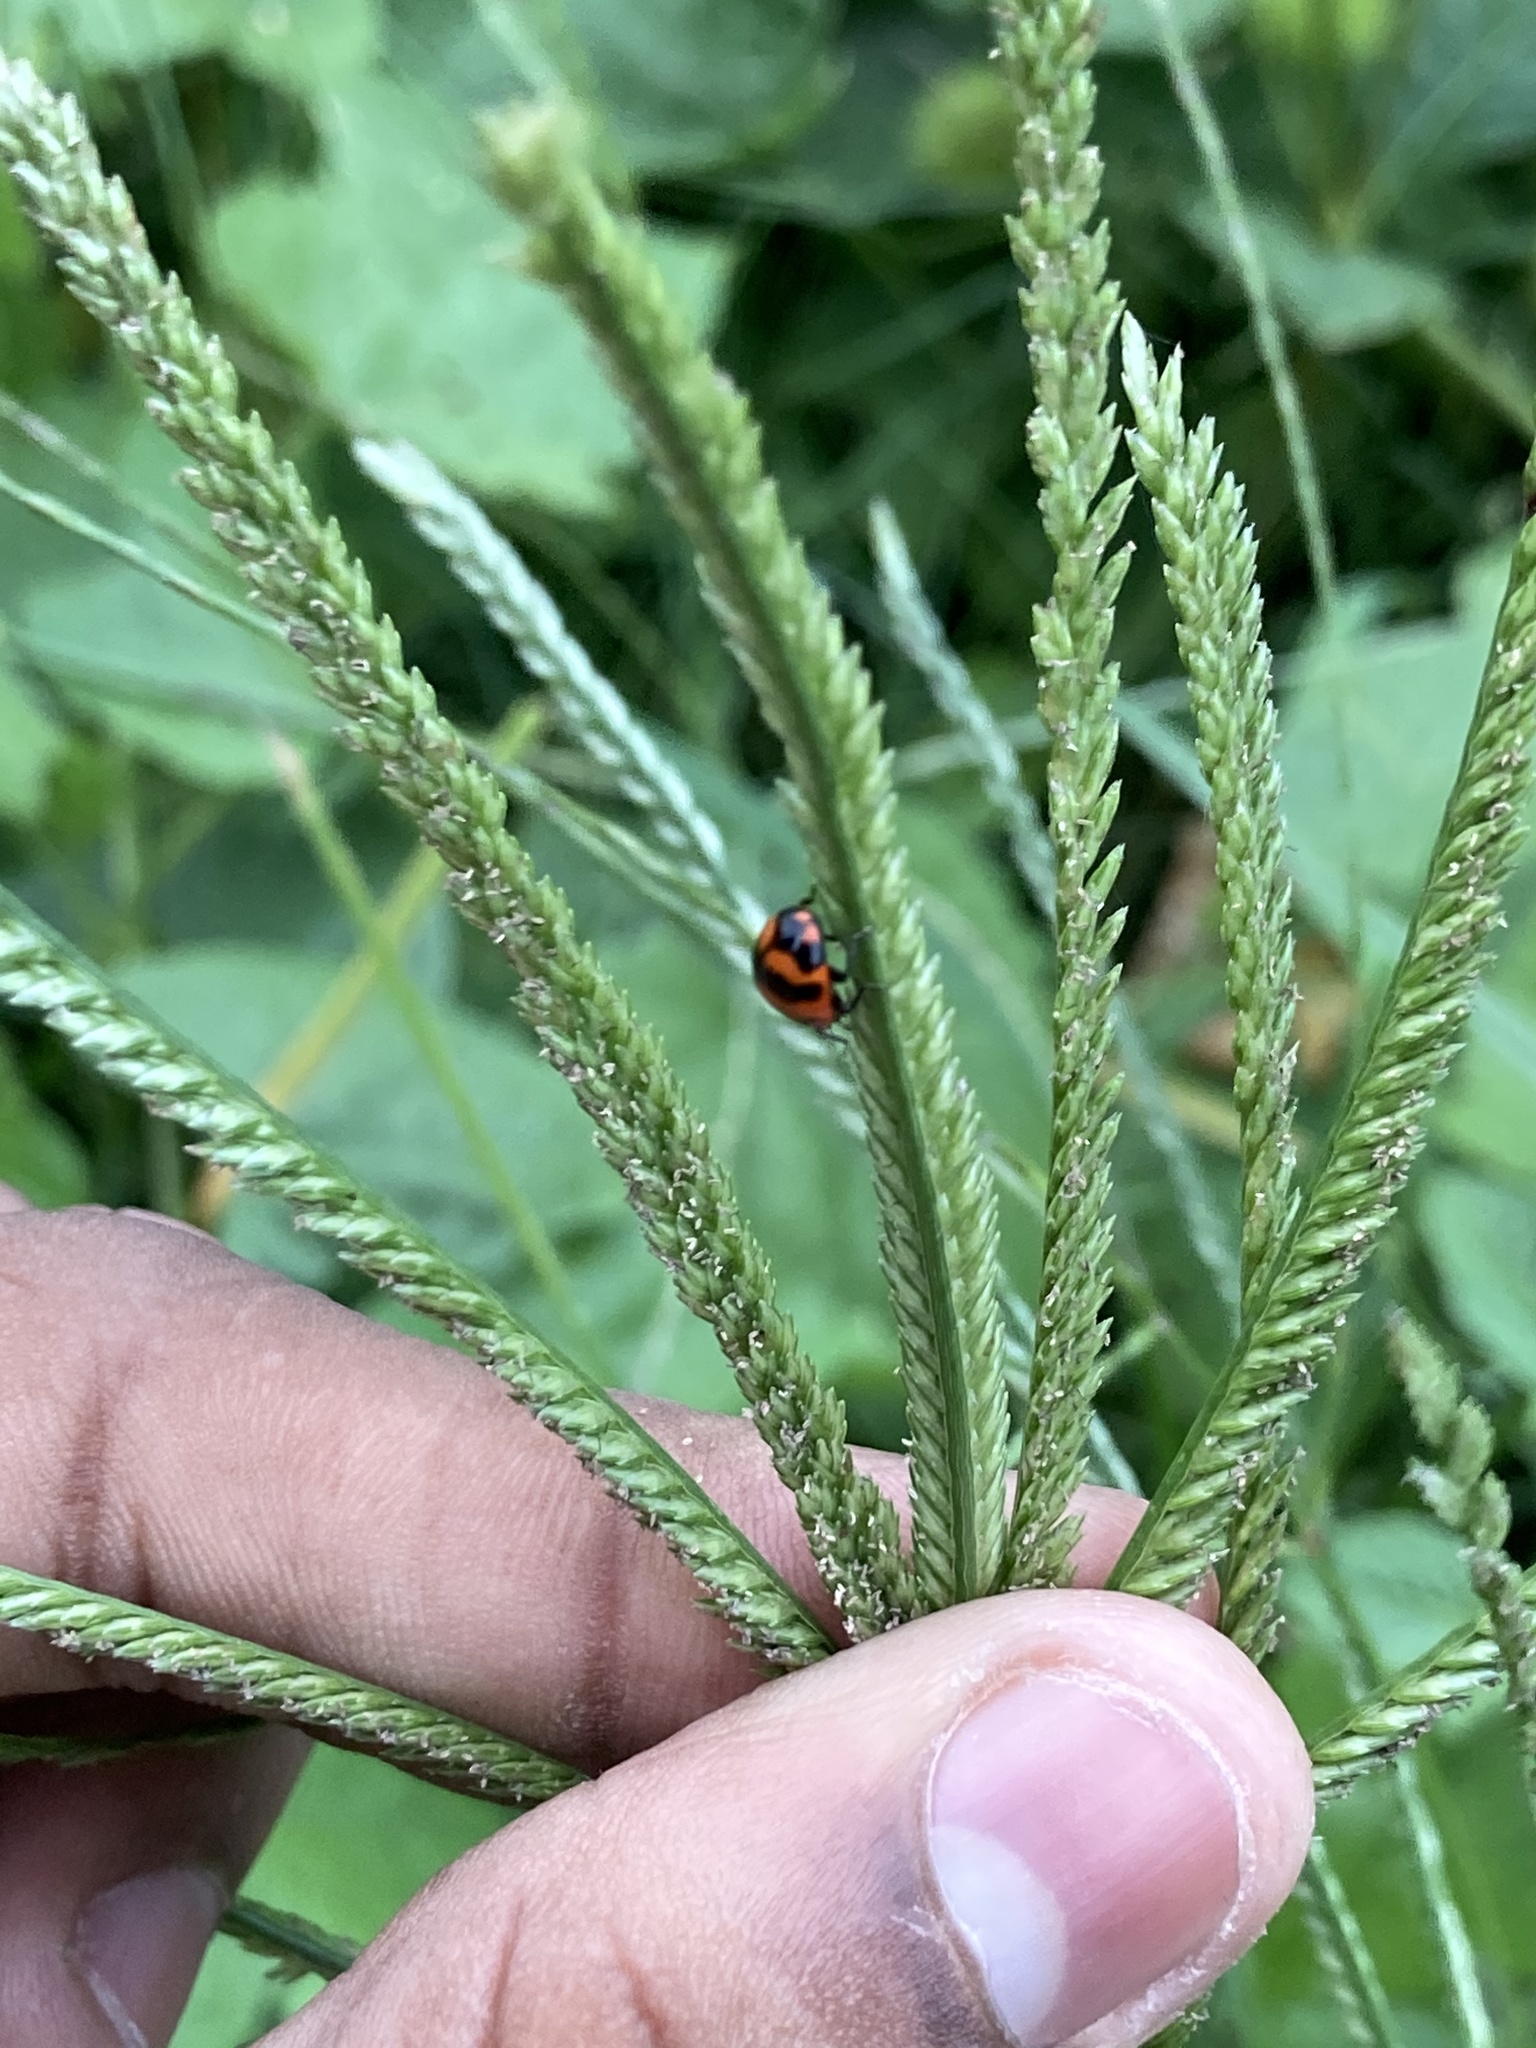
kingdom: Animalia
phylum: Arthropoda
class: Insecta
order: Coleoptera
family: Coccinellidae
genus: Coccinella
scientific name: Coccinella transversalis
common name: Transverse lady beetle
